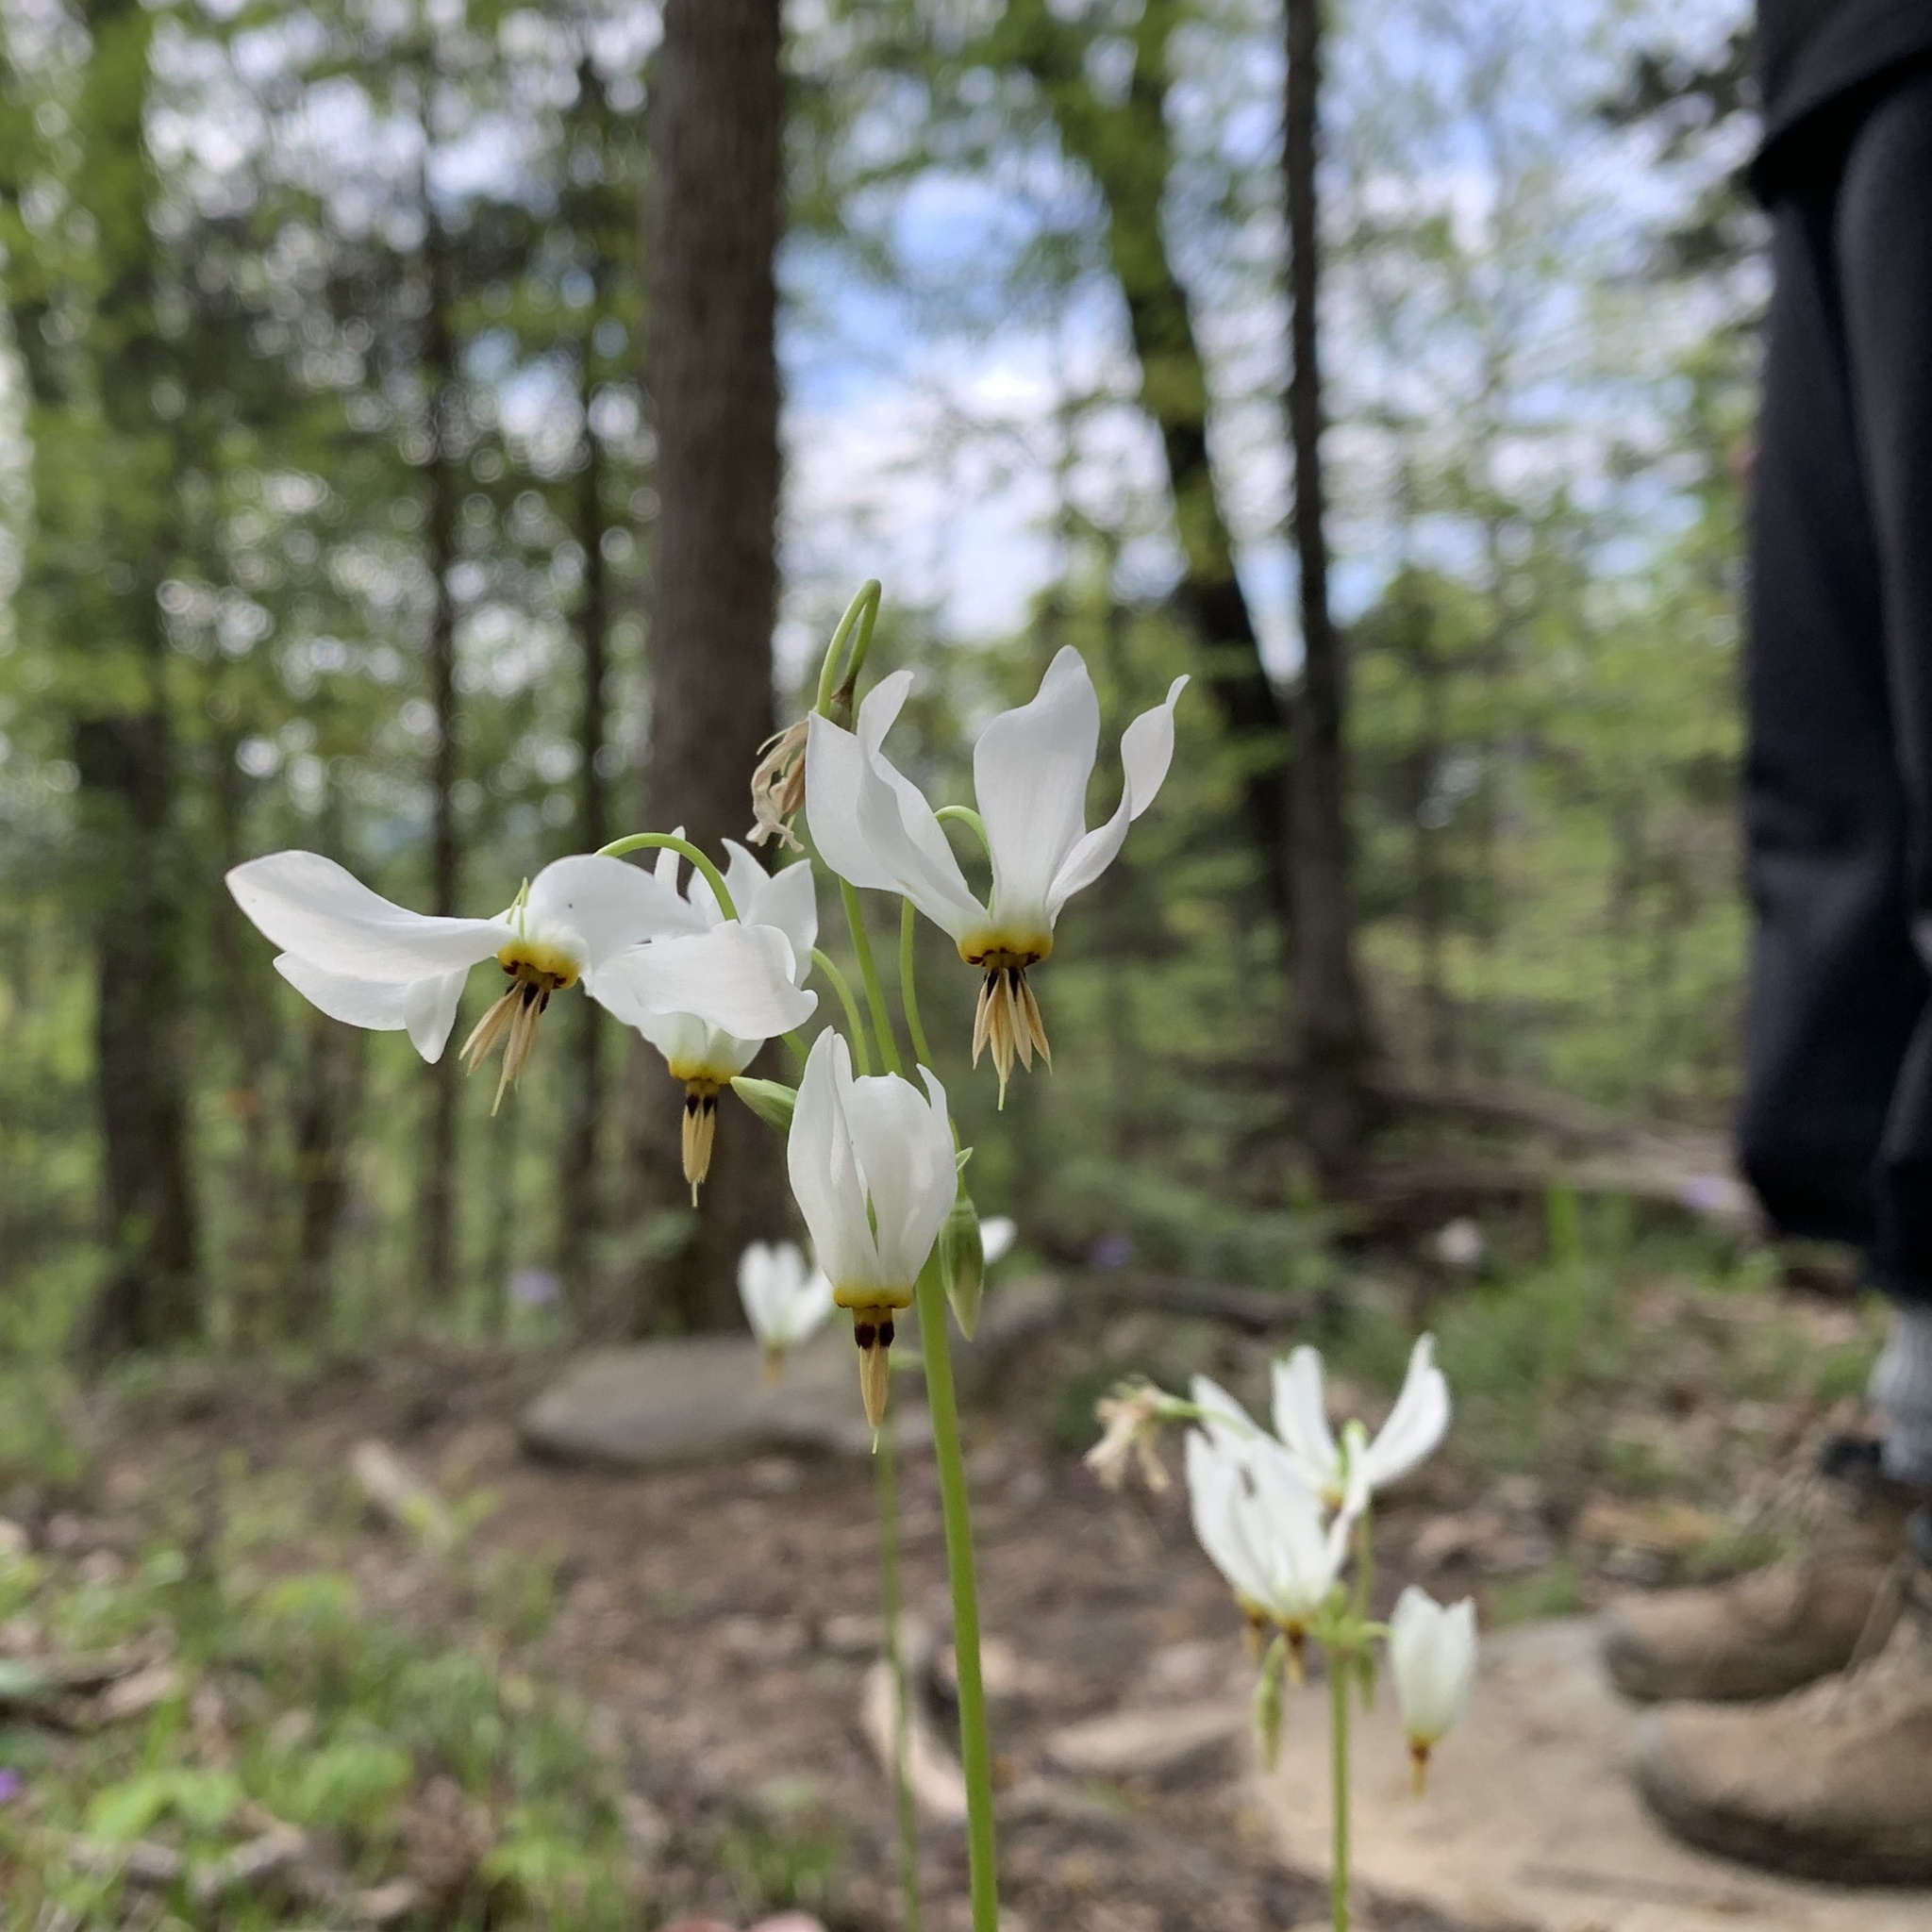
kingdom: Plantae
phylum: Tracheophyta
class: Magnoliopsida
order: Ericales
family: Primulaceae
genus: Dodecatheon
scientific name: Dodecatheon meadia
